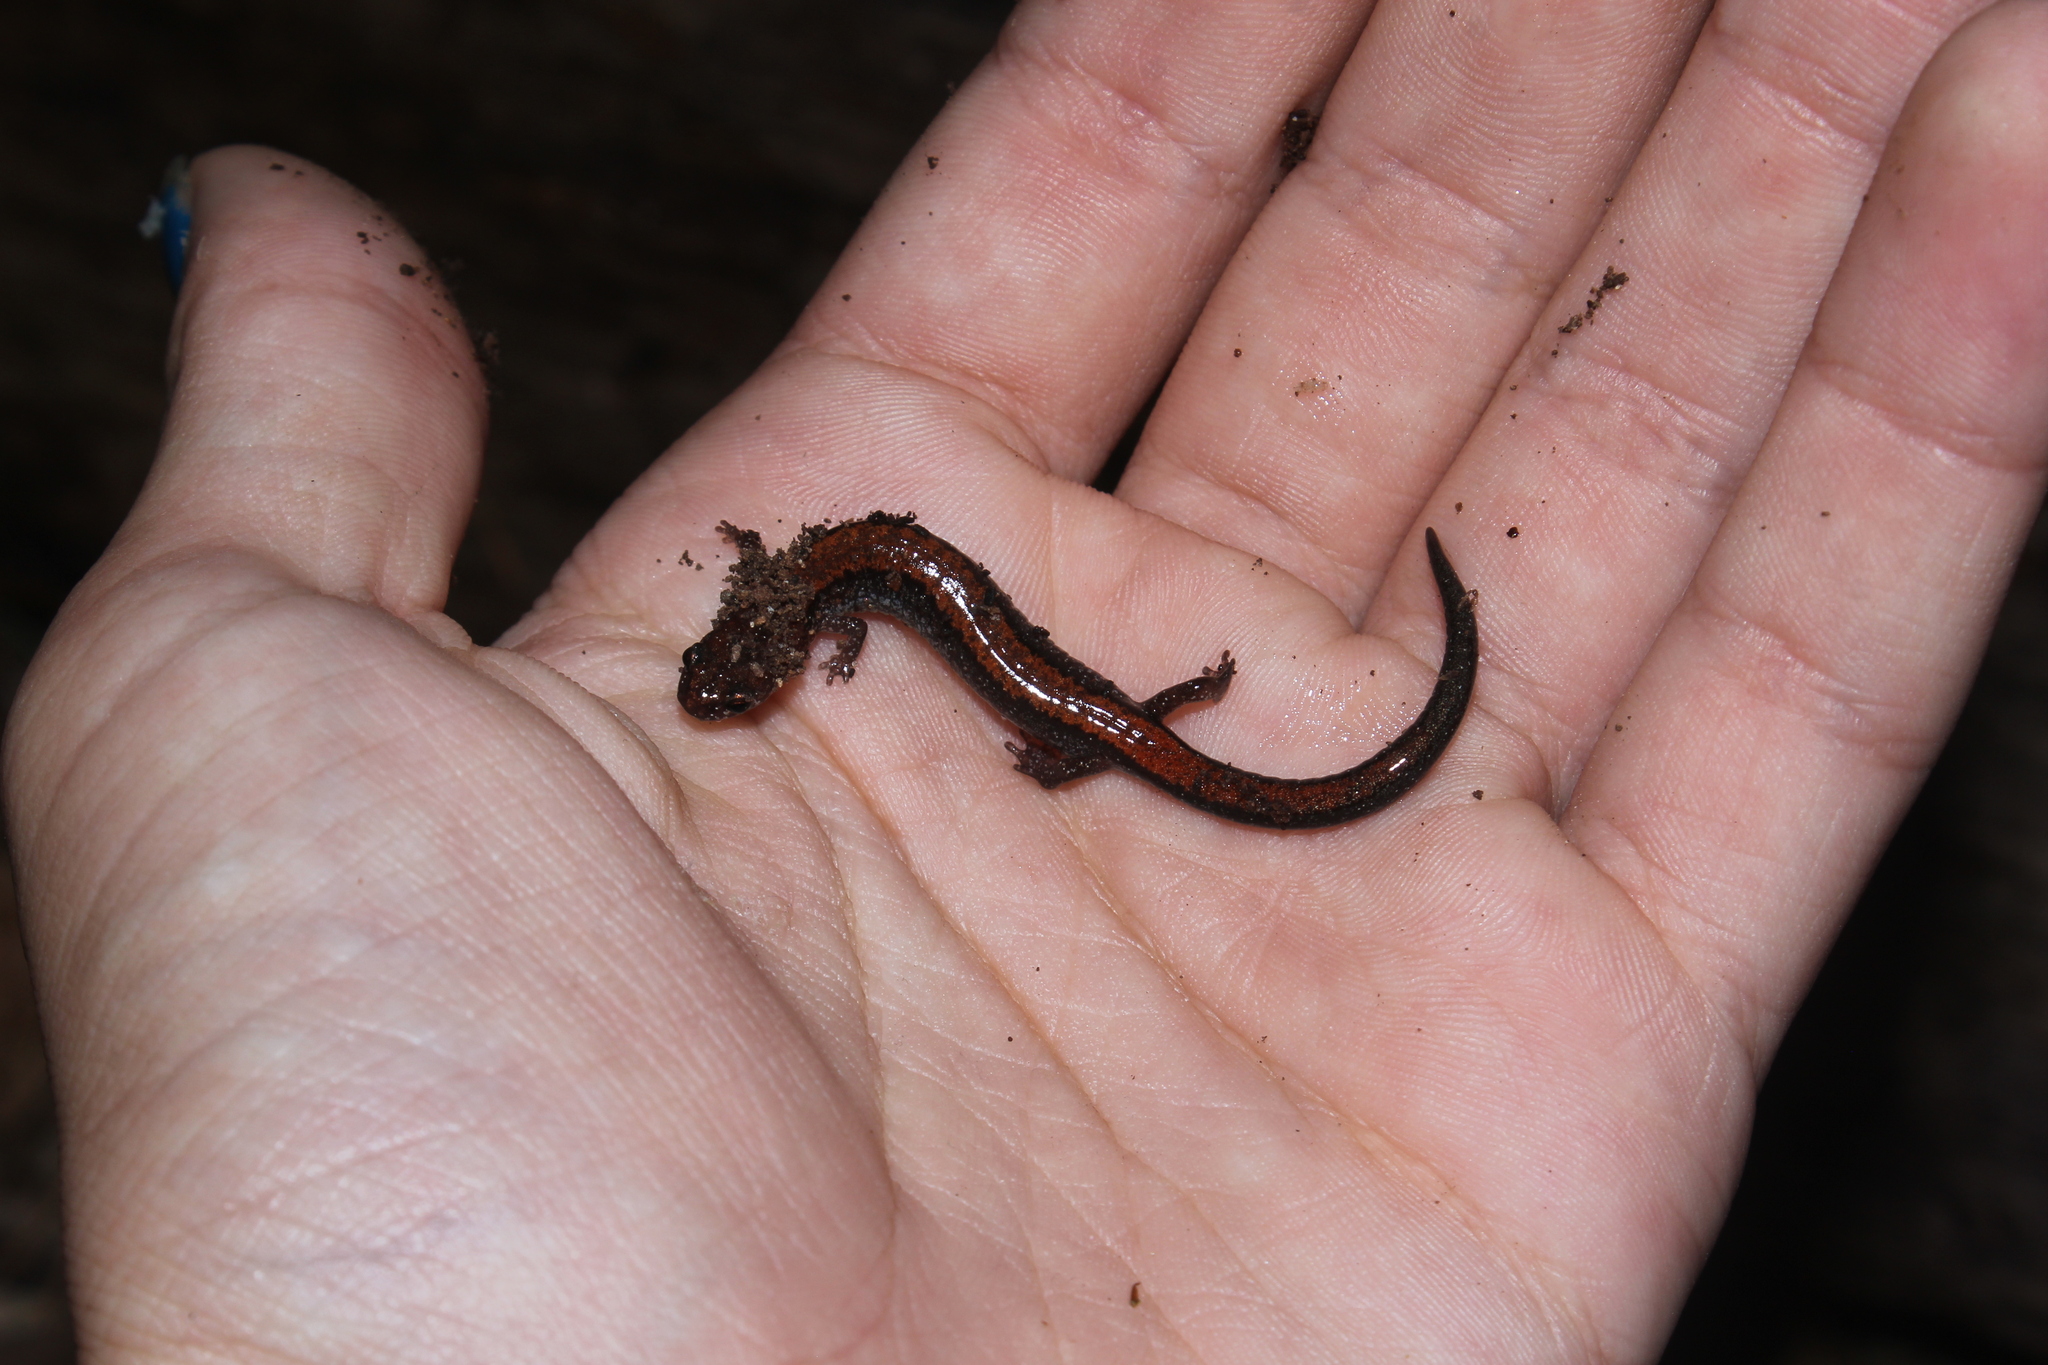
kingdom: Animalia
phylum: Chordata
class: Amphibia
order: Caudata
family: Plethodontidae
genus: Plethodon
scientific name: Plethodon cinereus
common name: Redback salamander
